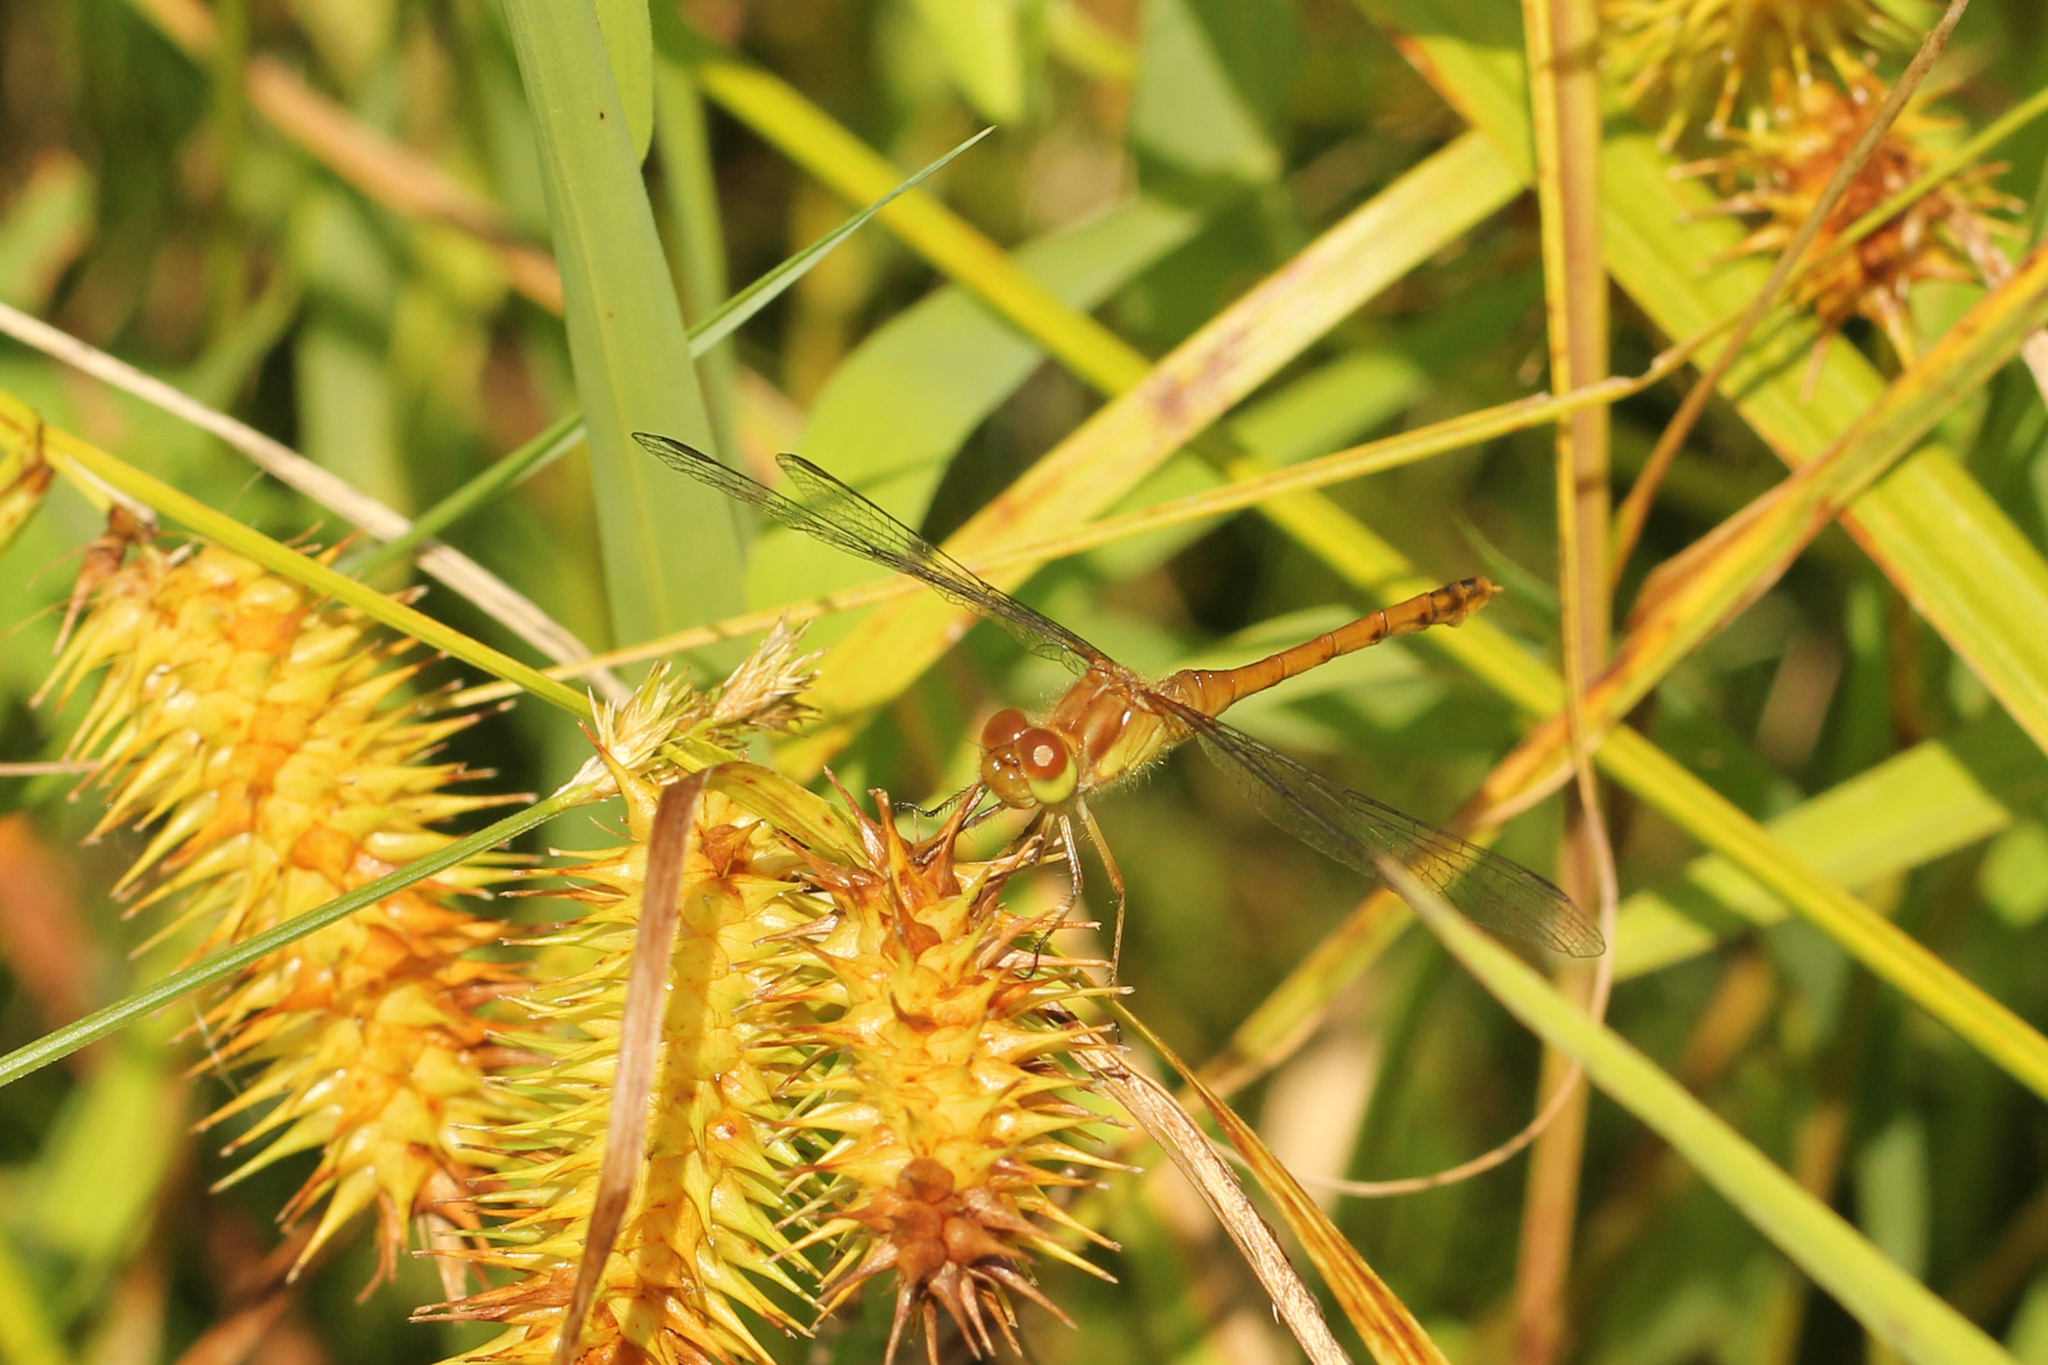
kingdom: Animalia
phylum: Arthropoda
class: Insecta
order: Odonata
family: Libellulidae
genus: Sympetrum
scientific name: Sympetrum vicinum
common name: Autumn meadowhawk
